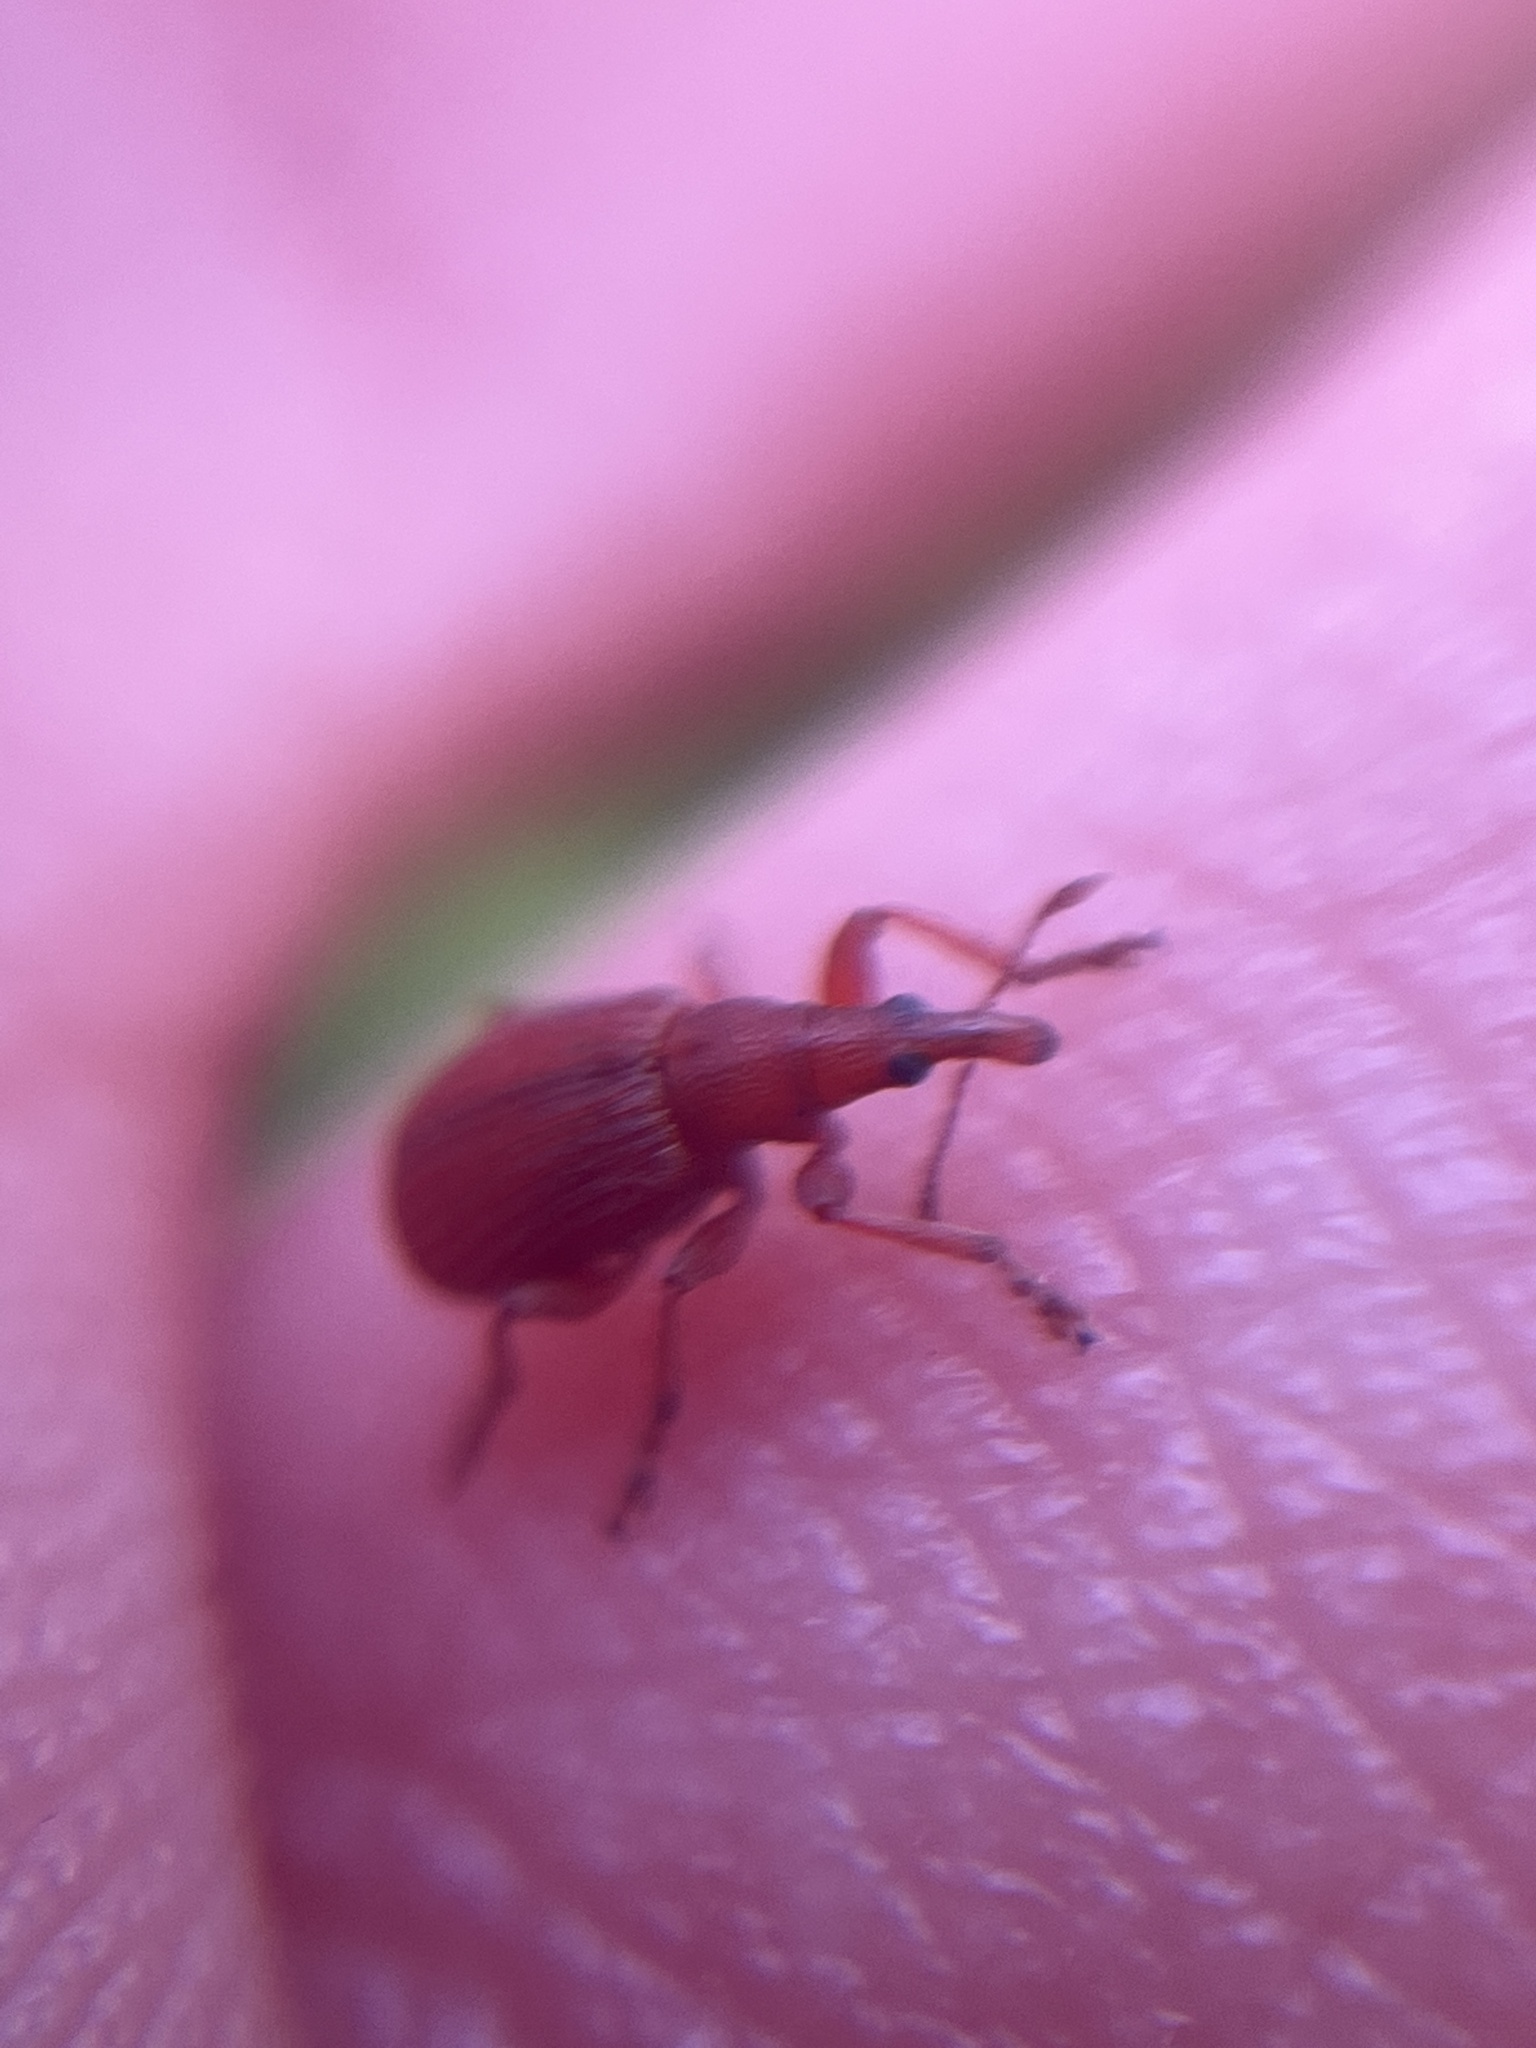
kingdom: Animalia
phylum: Arthropoda
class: Insecta
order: Coleoptera
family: Apionidae
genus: Apion
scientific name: Apion frumentarium
